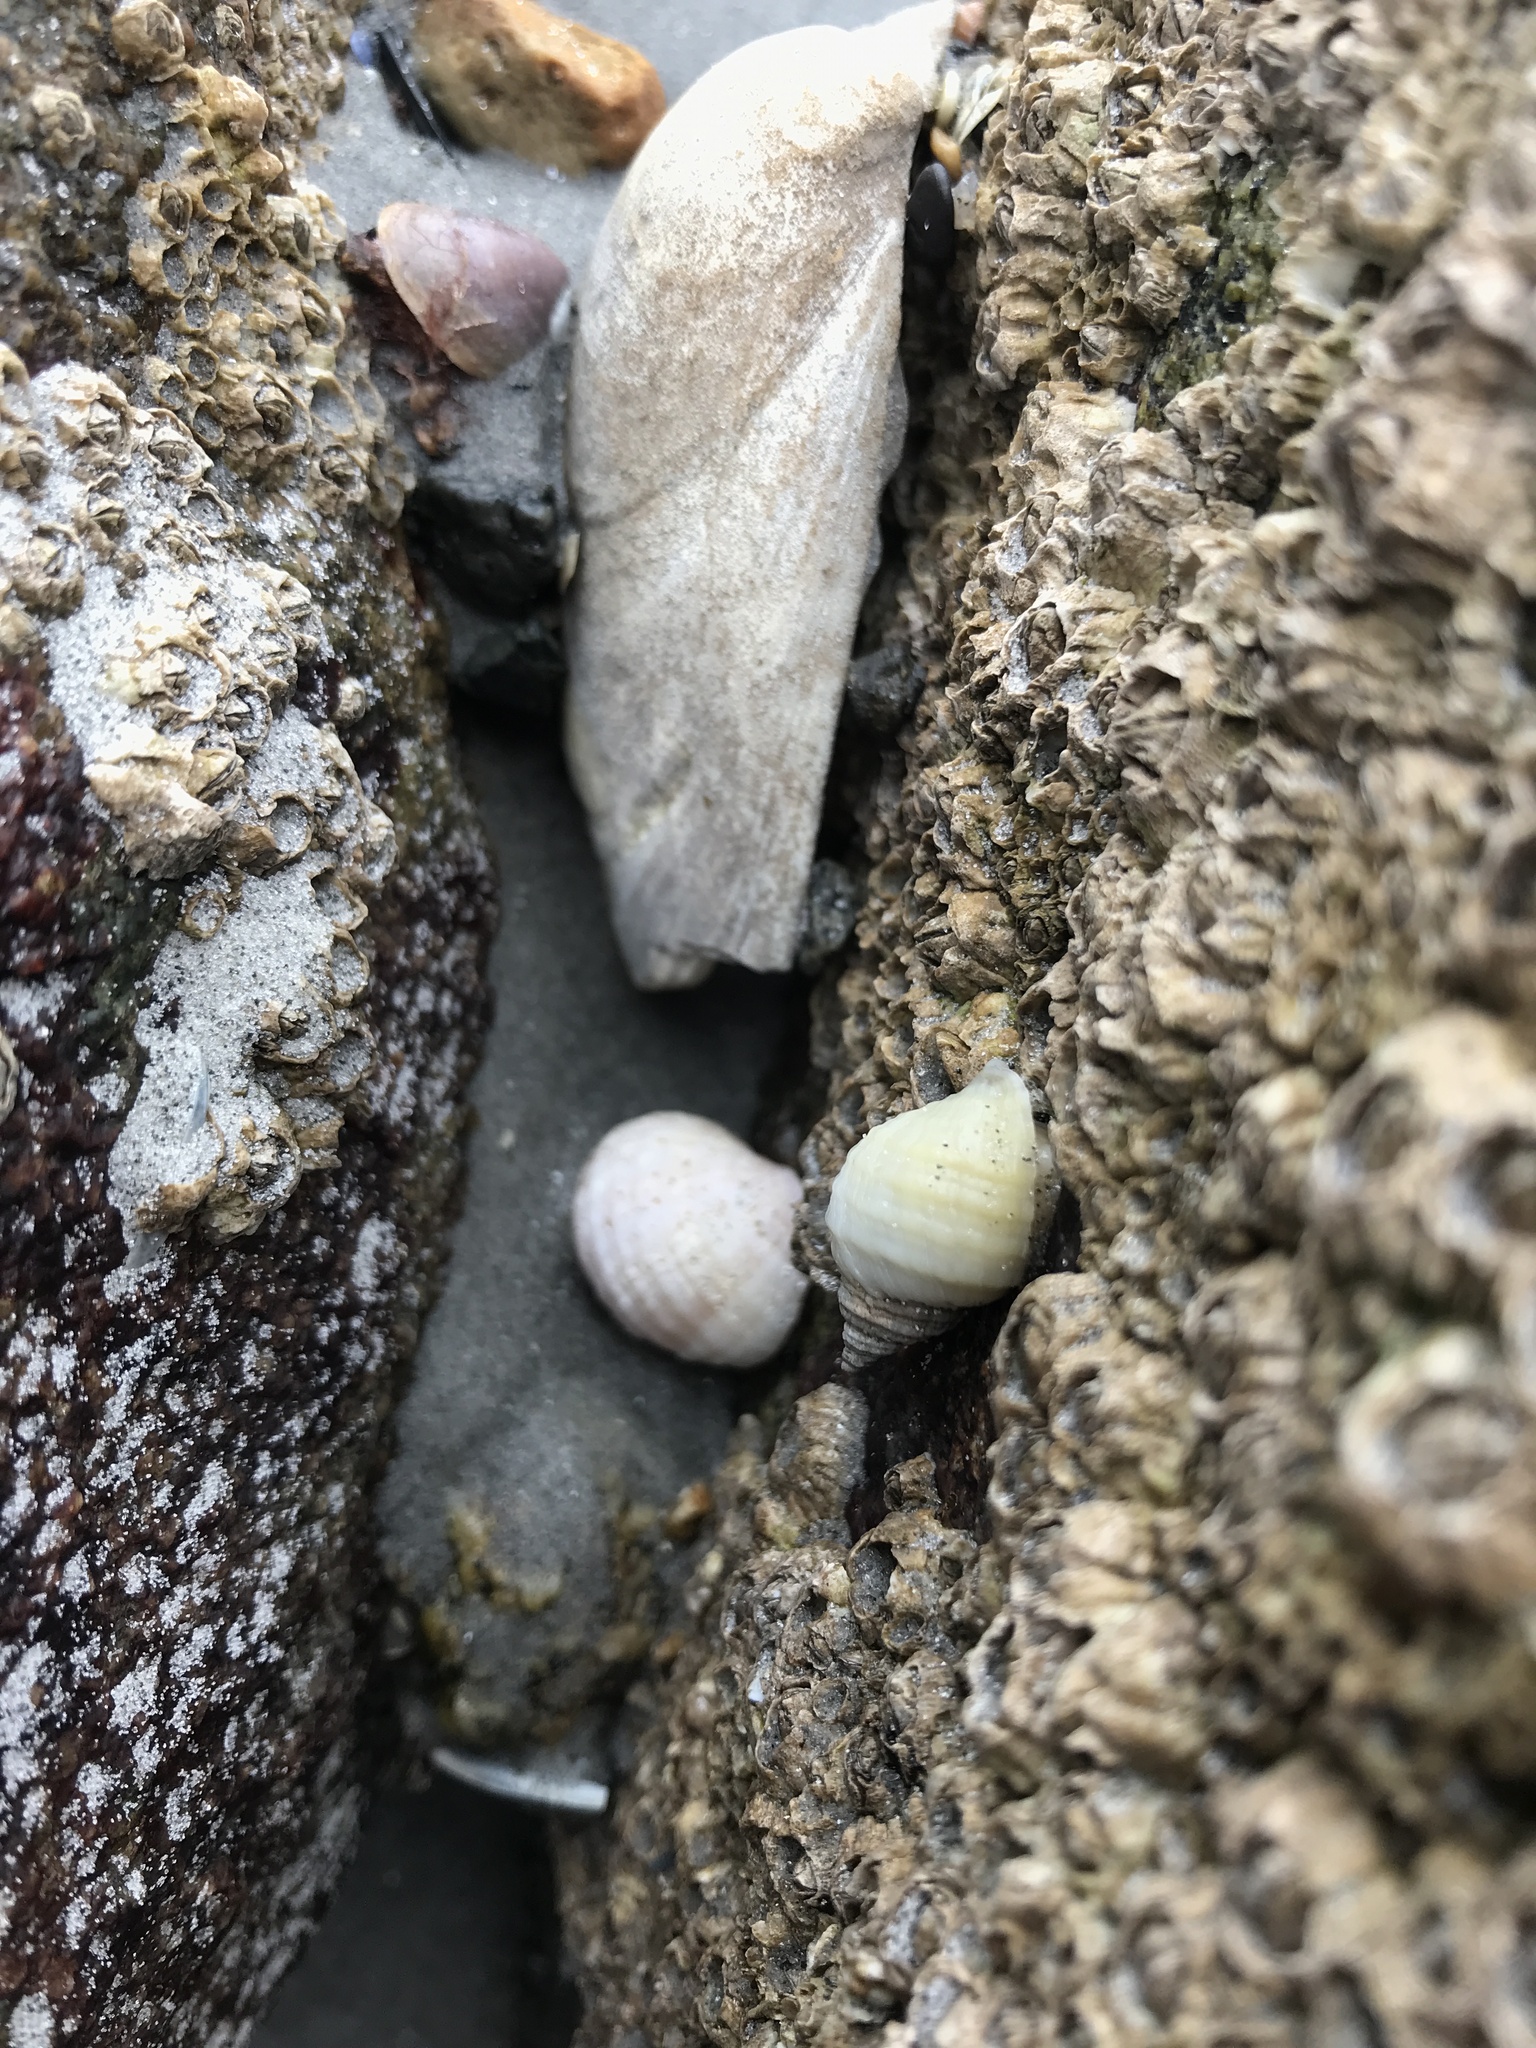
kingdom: Animalia
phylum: Mollusca
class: Gastropoda
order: Neogastropoda
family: Muricidae
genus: Nucella
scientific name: Nucella lapillus
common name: Dog whelk
